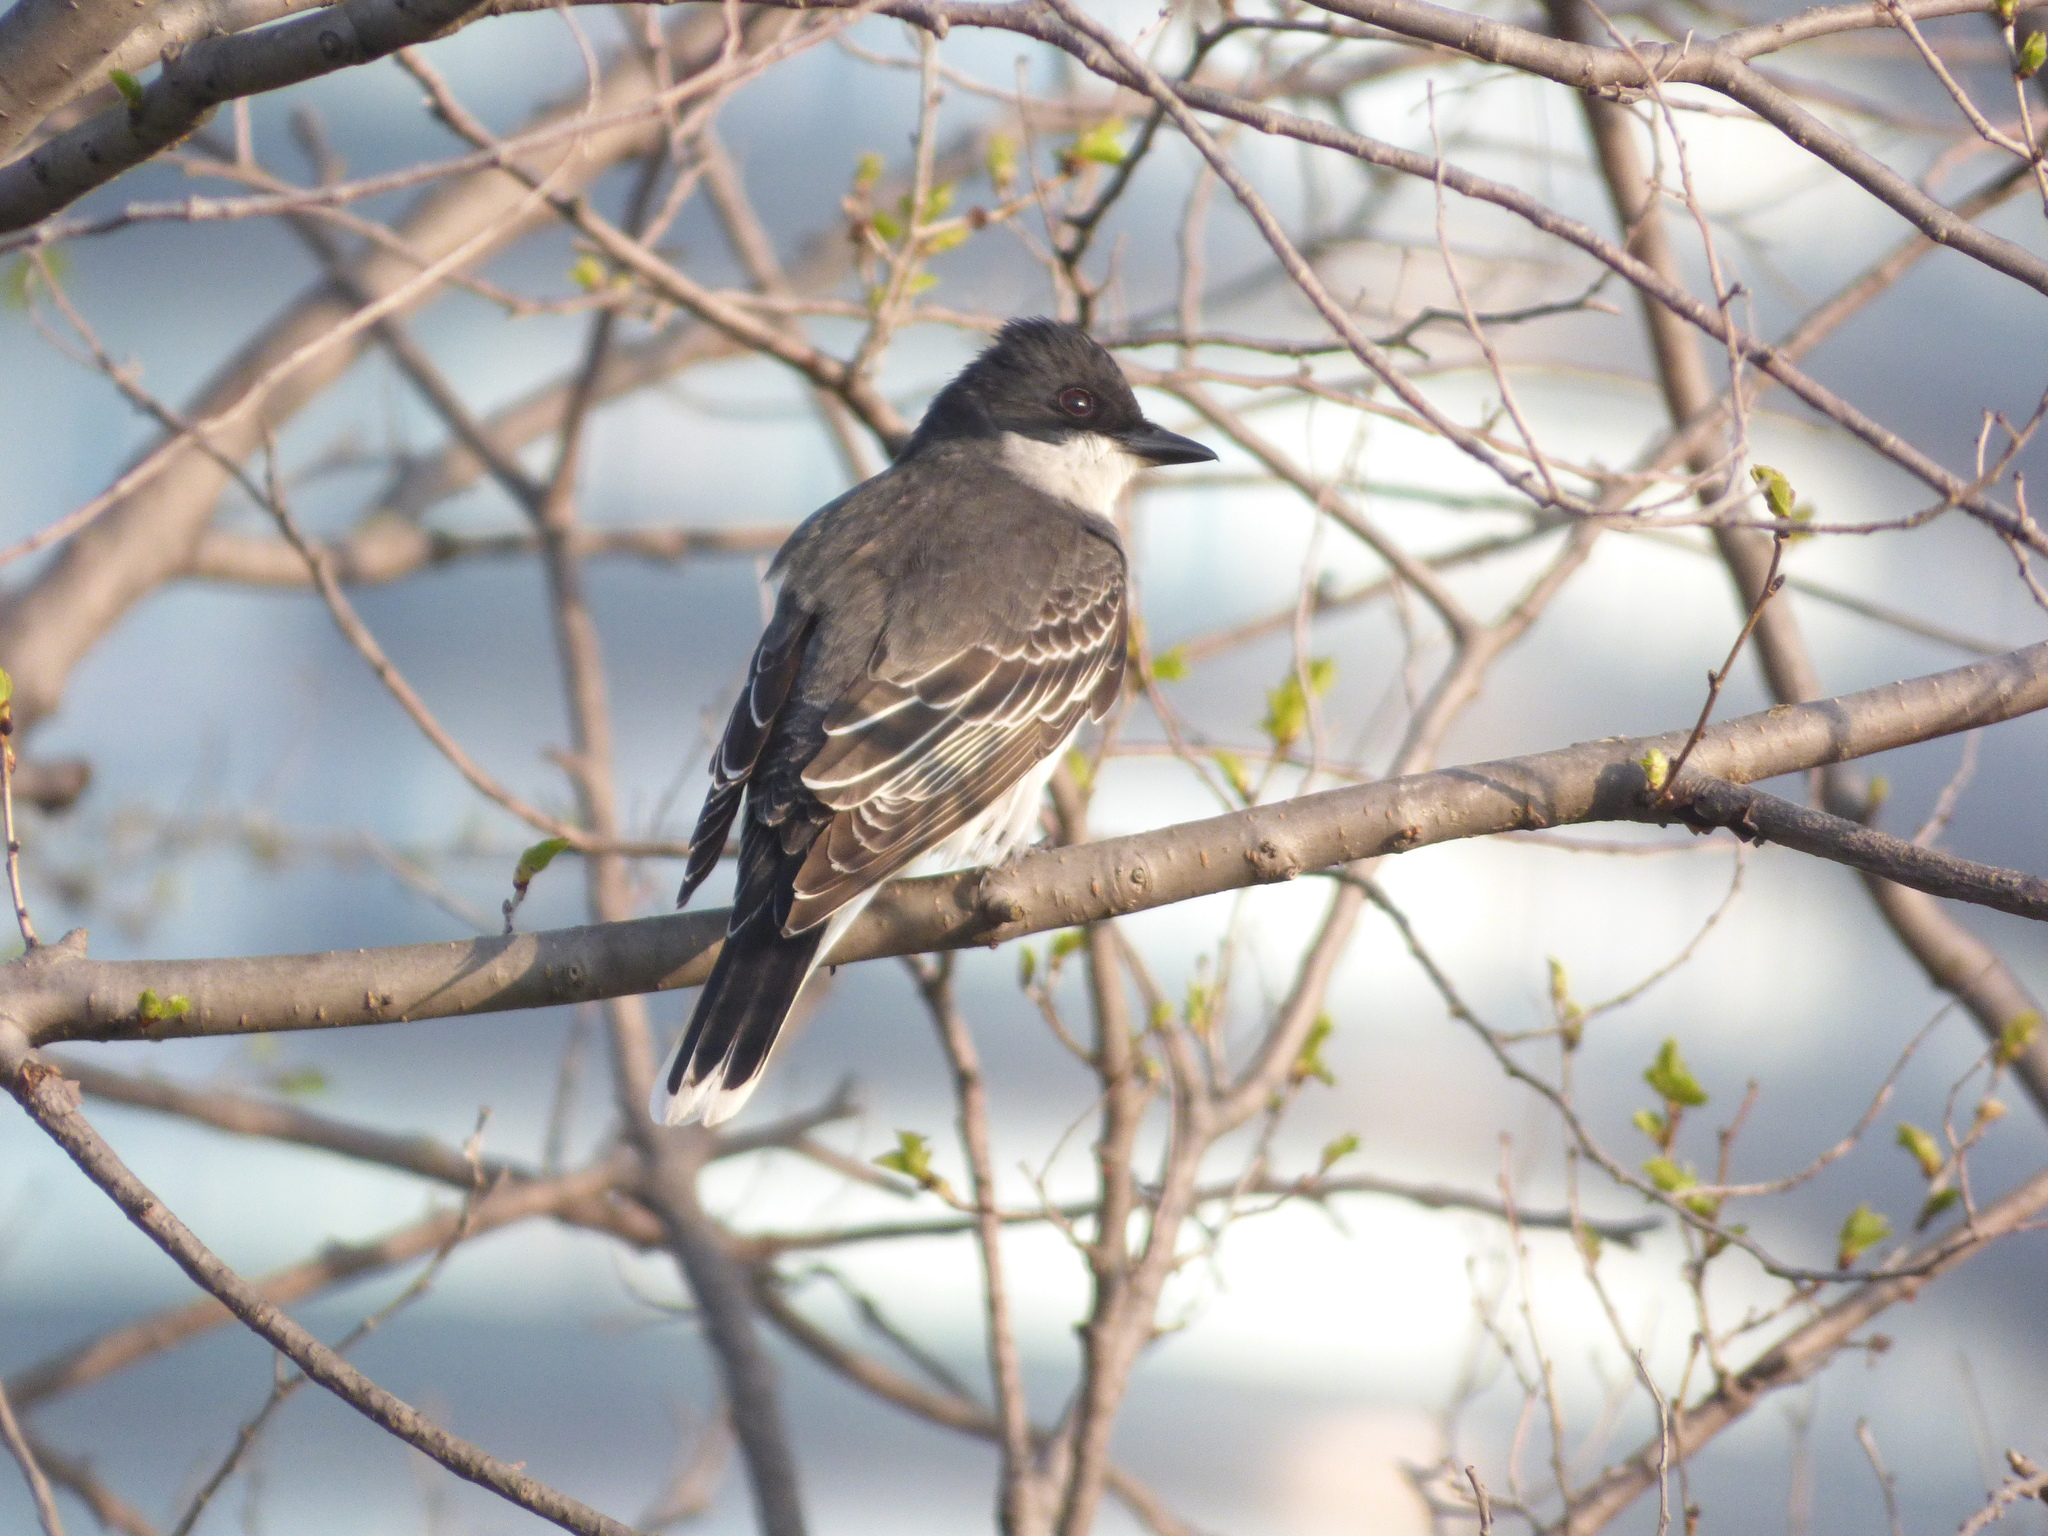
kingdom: Animalia
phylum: Chordata
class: Aves
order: Passeriformes
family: Tyrannidae
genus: Tyrannus
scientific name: Tyrannus tyrannus
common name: Eastern kingbird
